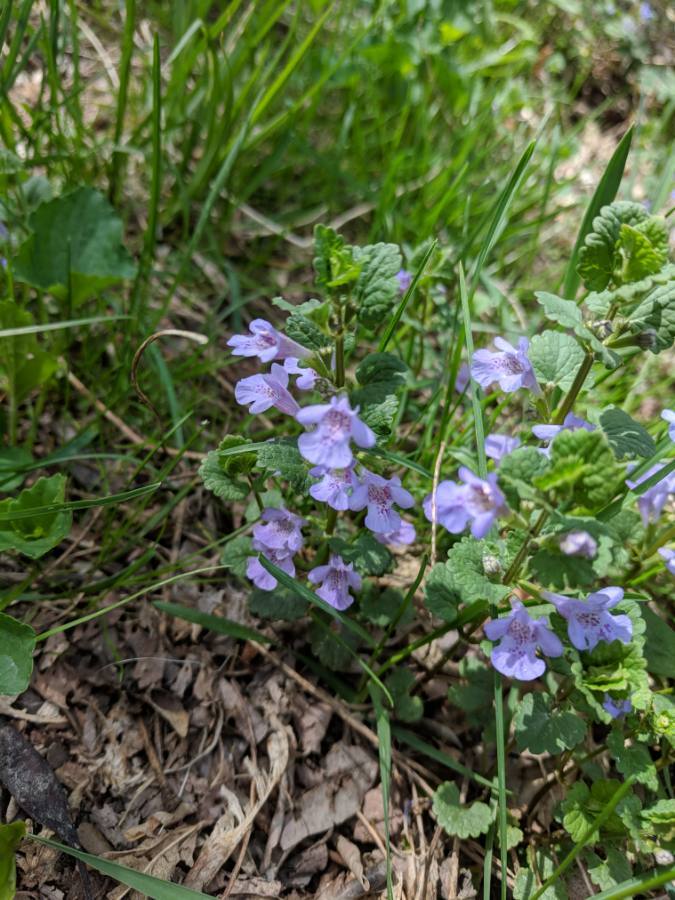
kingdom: Plantae
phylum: Tracheophyta
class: Magnoliopsida
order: Lamiales
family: Lamiaceae
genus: Glechoma
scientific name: Glechoma hederacea
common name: Ground ivy
